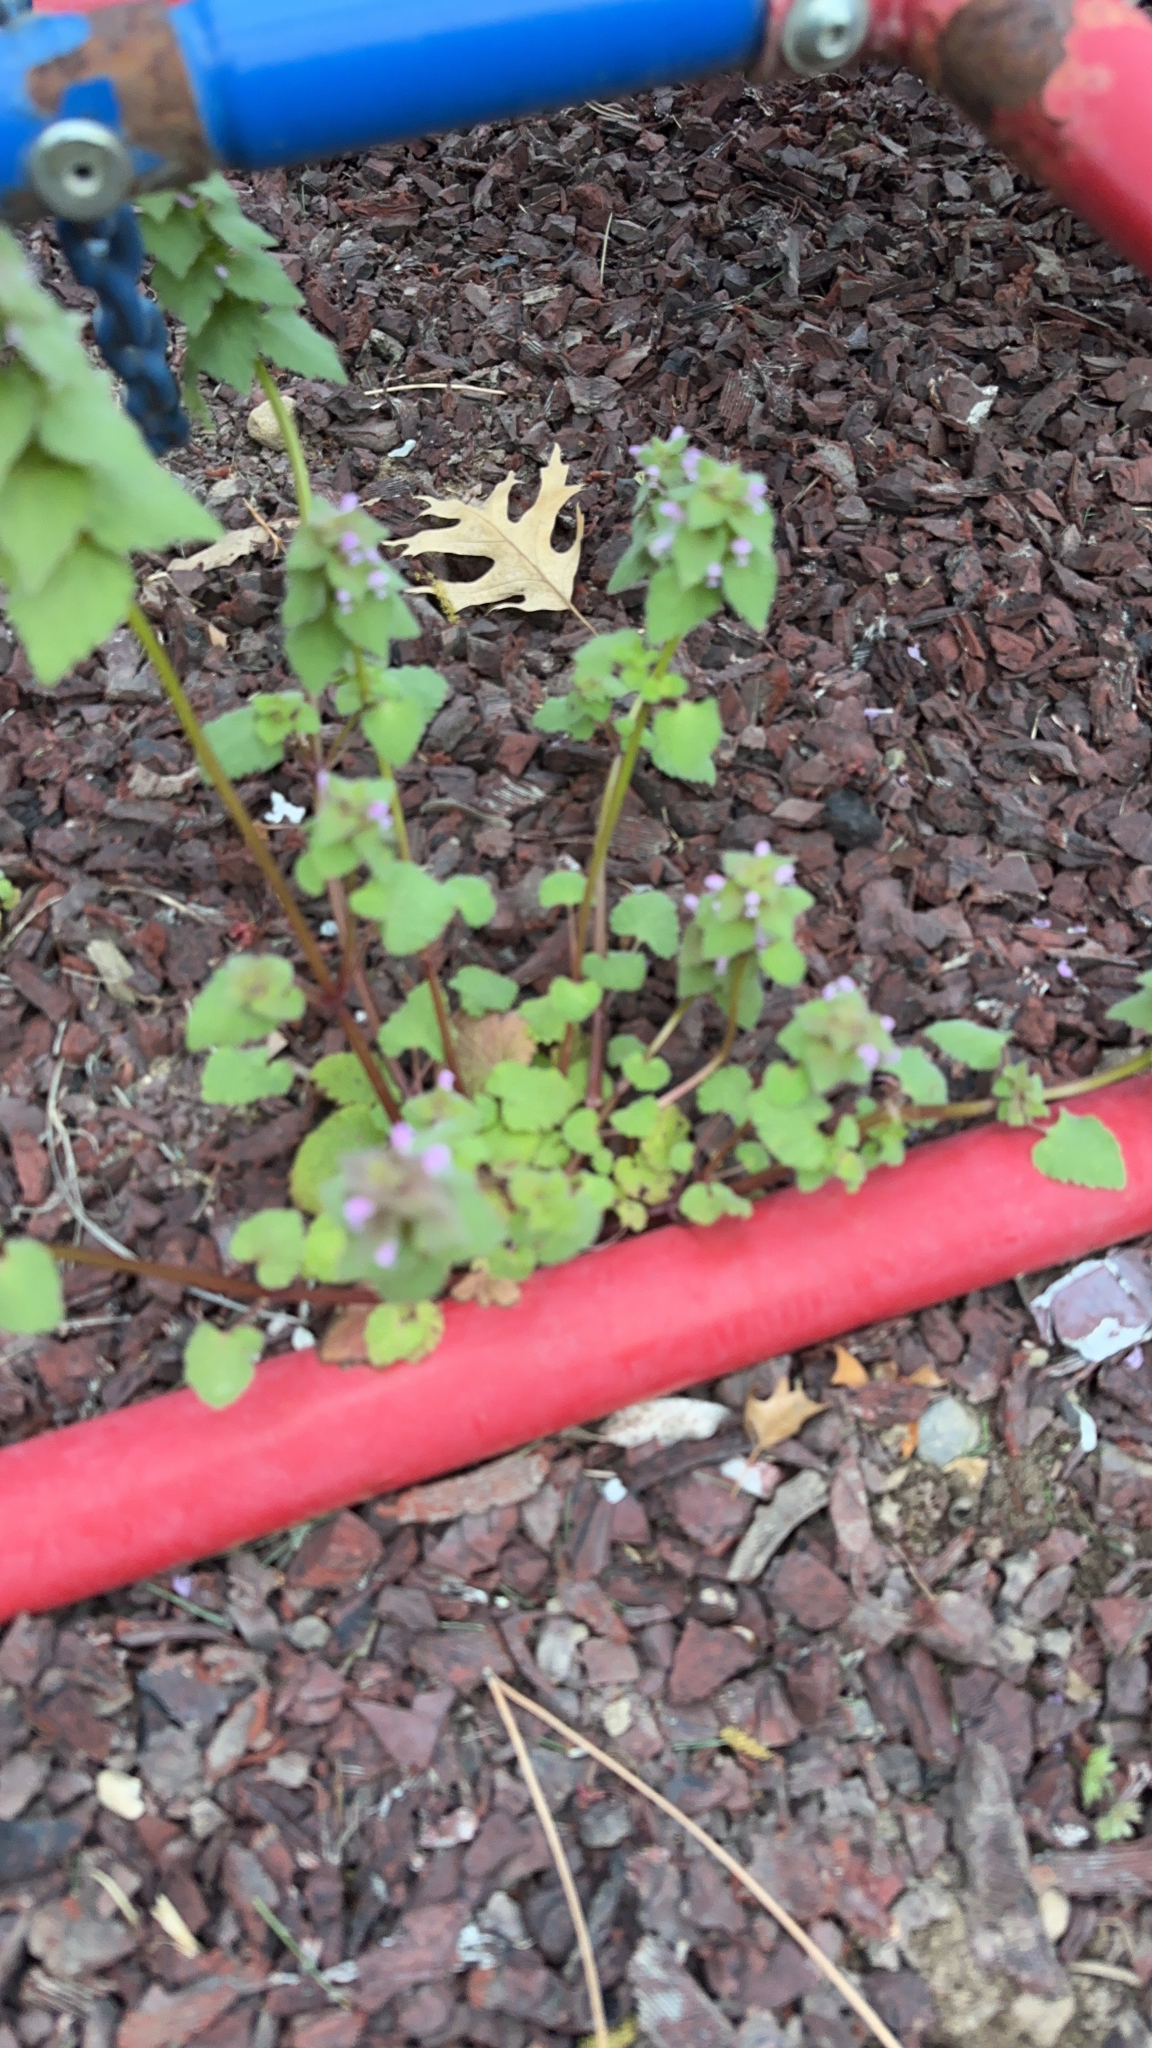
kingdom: Plantae
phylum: Tracheophyta
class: Magnoliopsida
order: Lamiales
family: Lamiaceae
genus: Lamium
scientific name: Lamium purpureum
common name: Red dead-nettle
